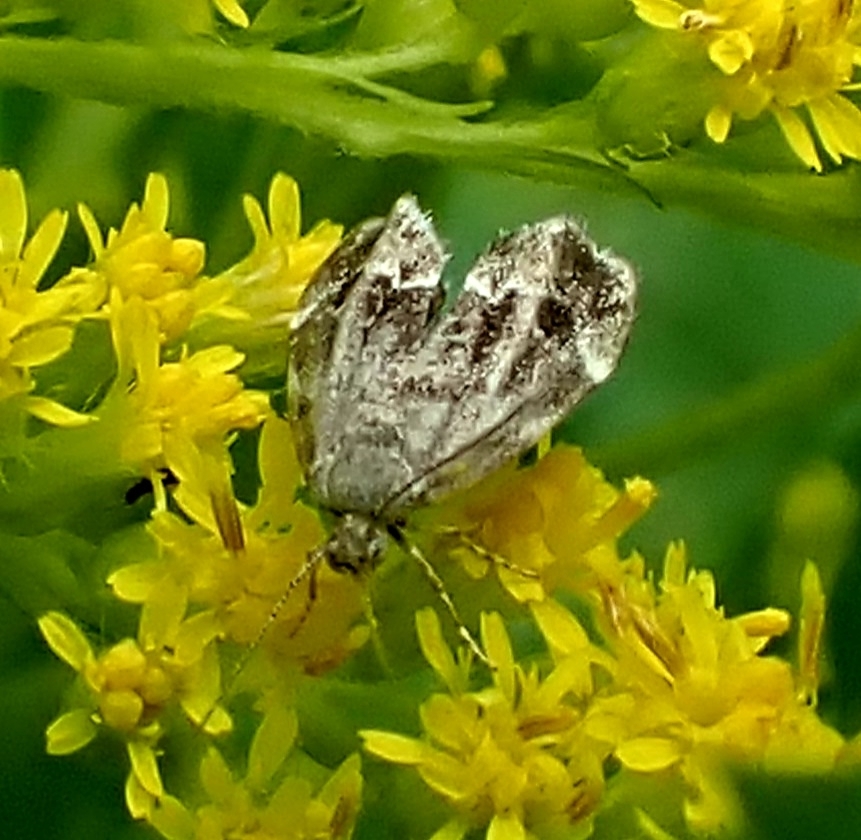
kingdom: Animalia
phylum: Arthropoda
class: Insecta
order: Lepidoptera
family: Choreutidae
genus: Anthophila
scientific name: Anthophila fabriciana
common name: Nettle-tap
